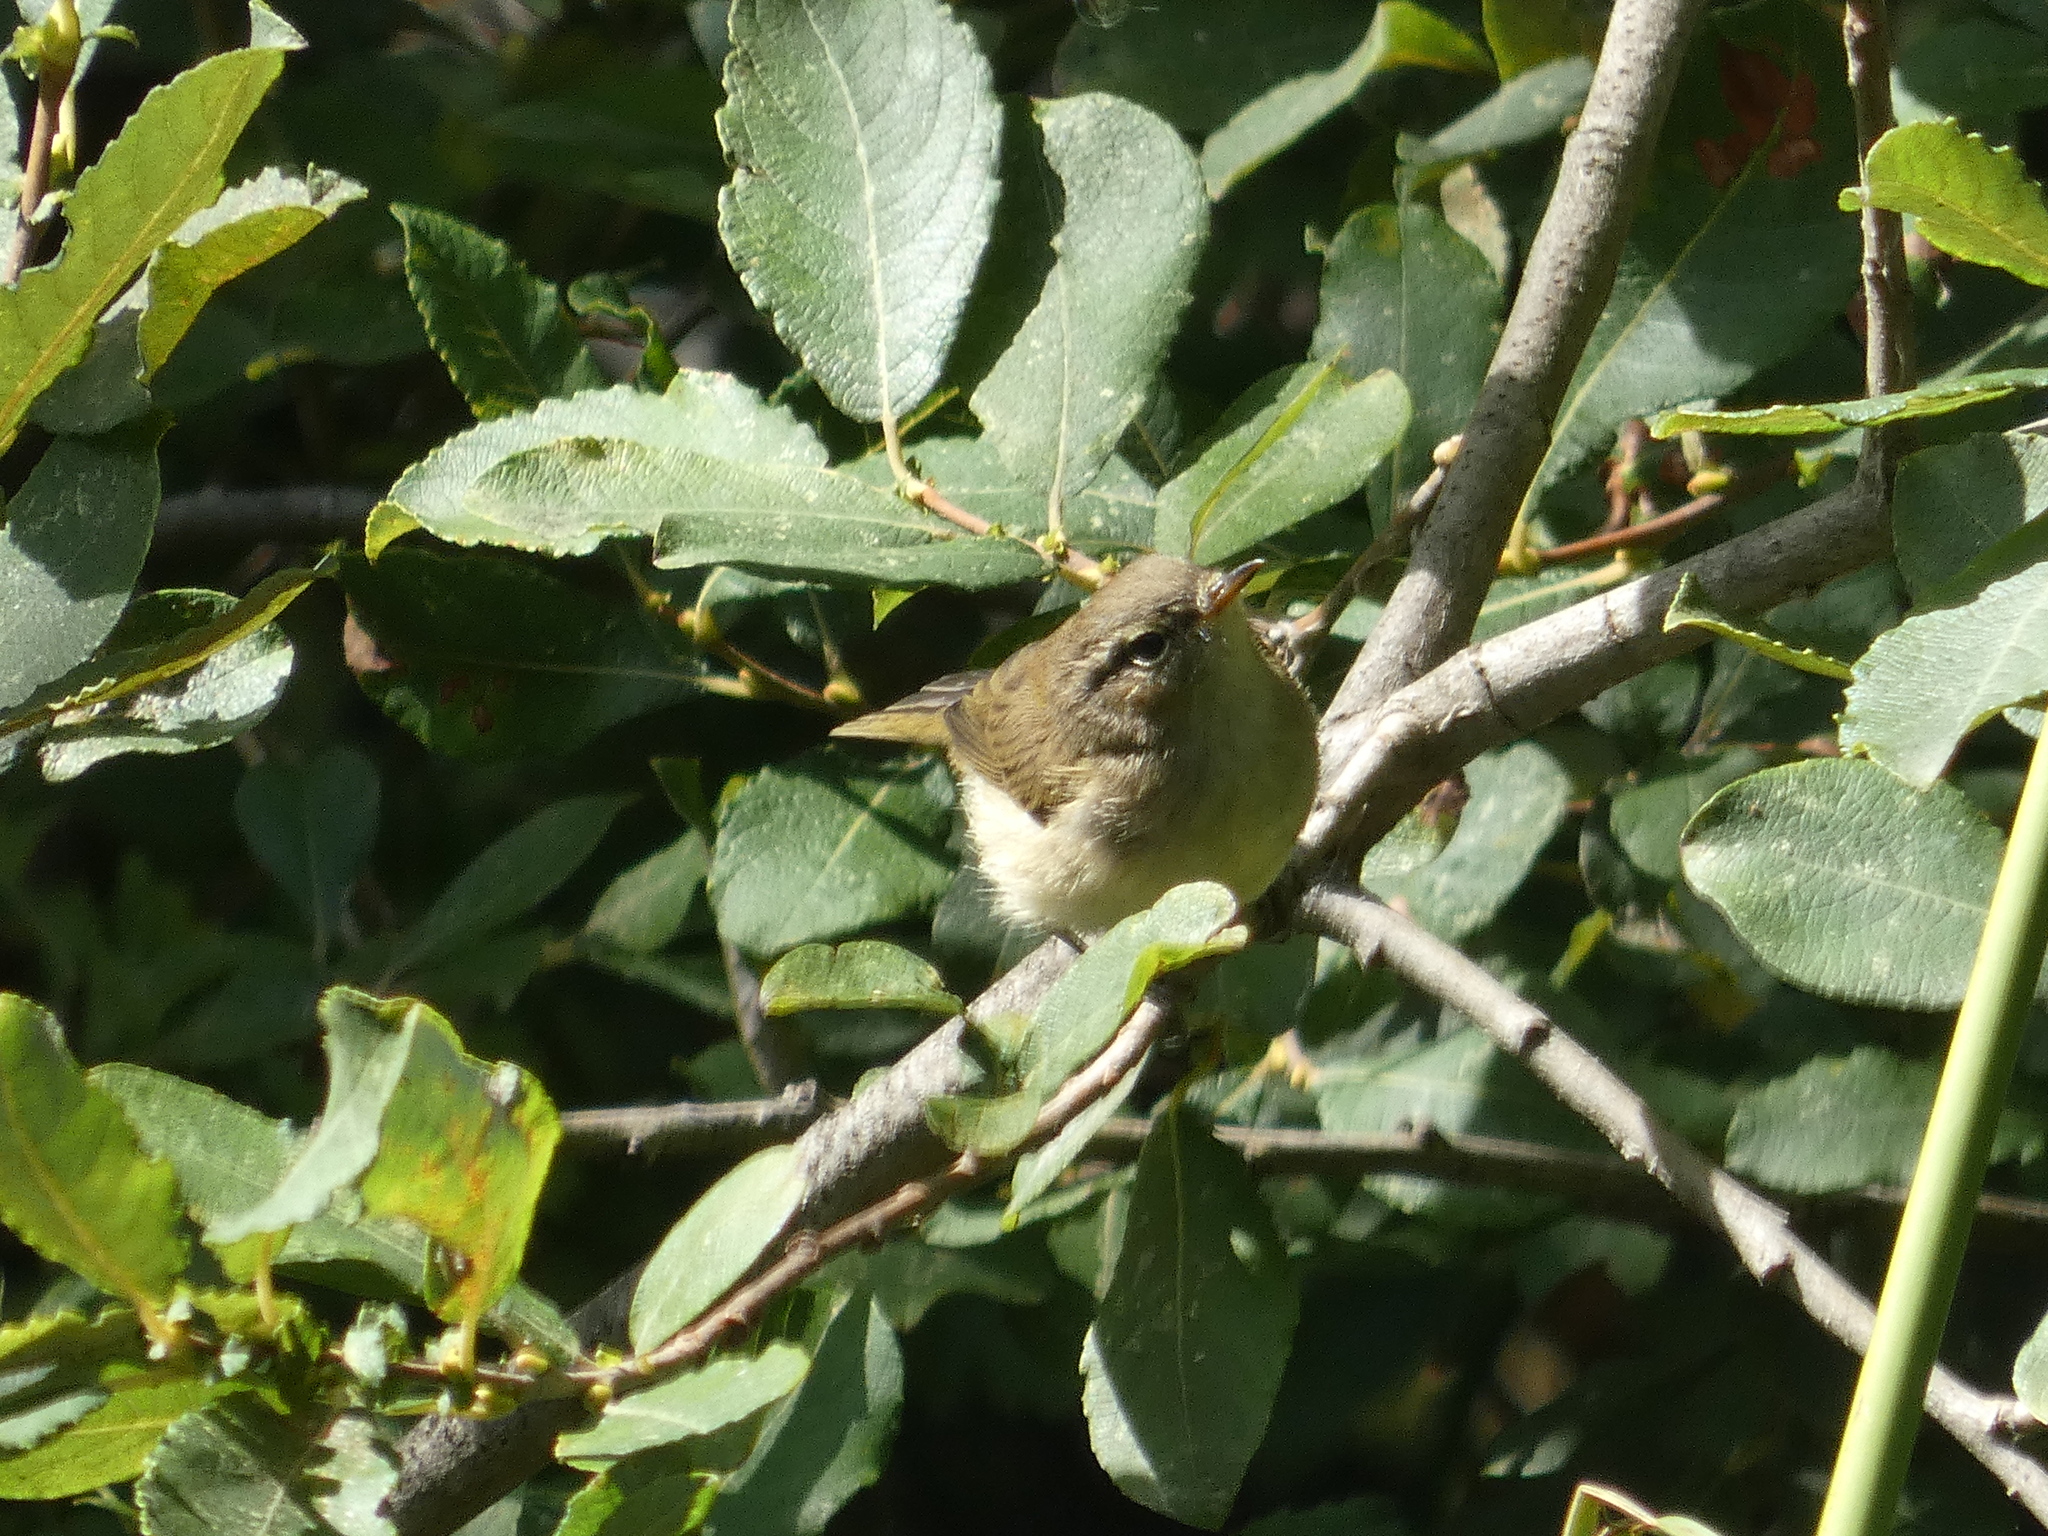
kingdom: Animalia
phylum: Chordata
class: Aves
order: Passeriformes
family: Phylloscopidae
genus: Phylloscopus
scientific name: Phylloscopus collybita
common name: Common chiffchaff
